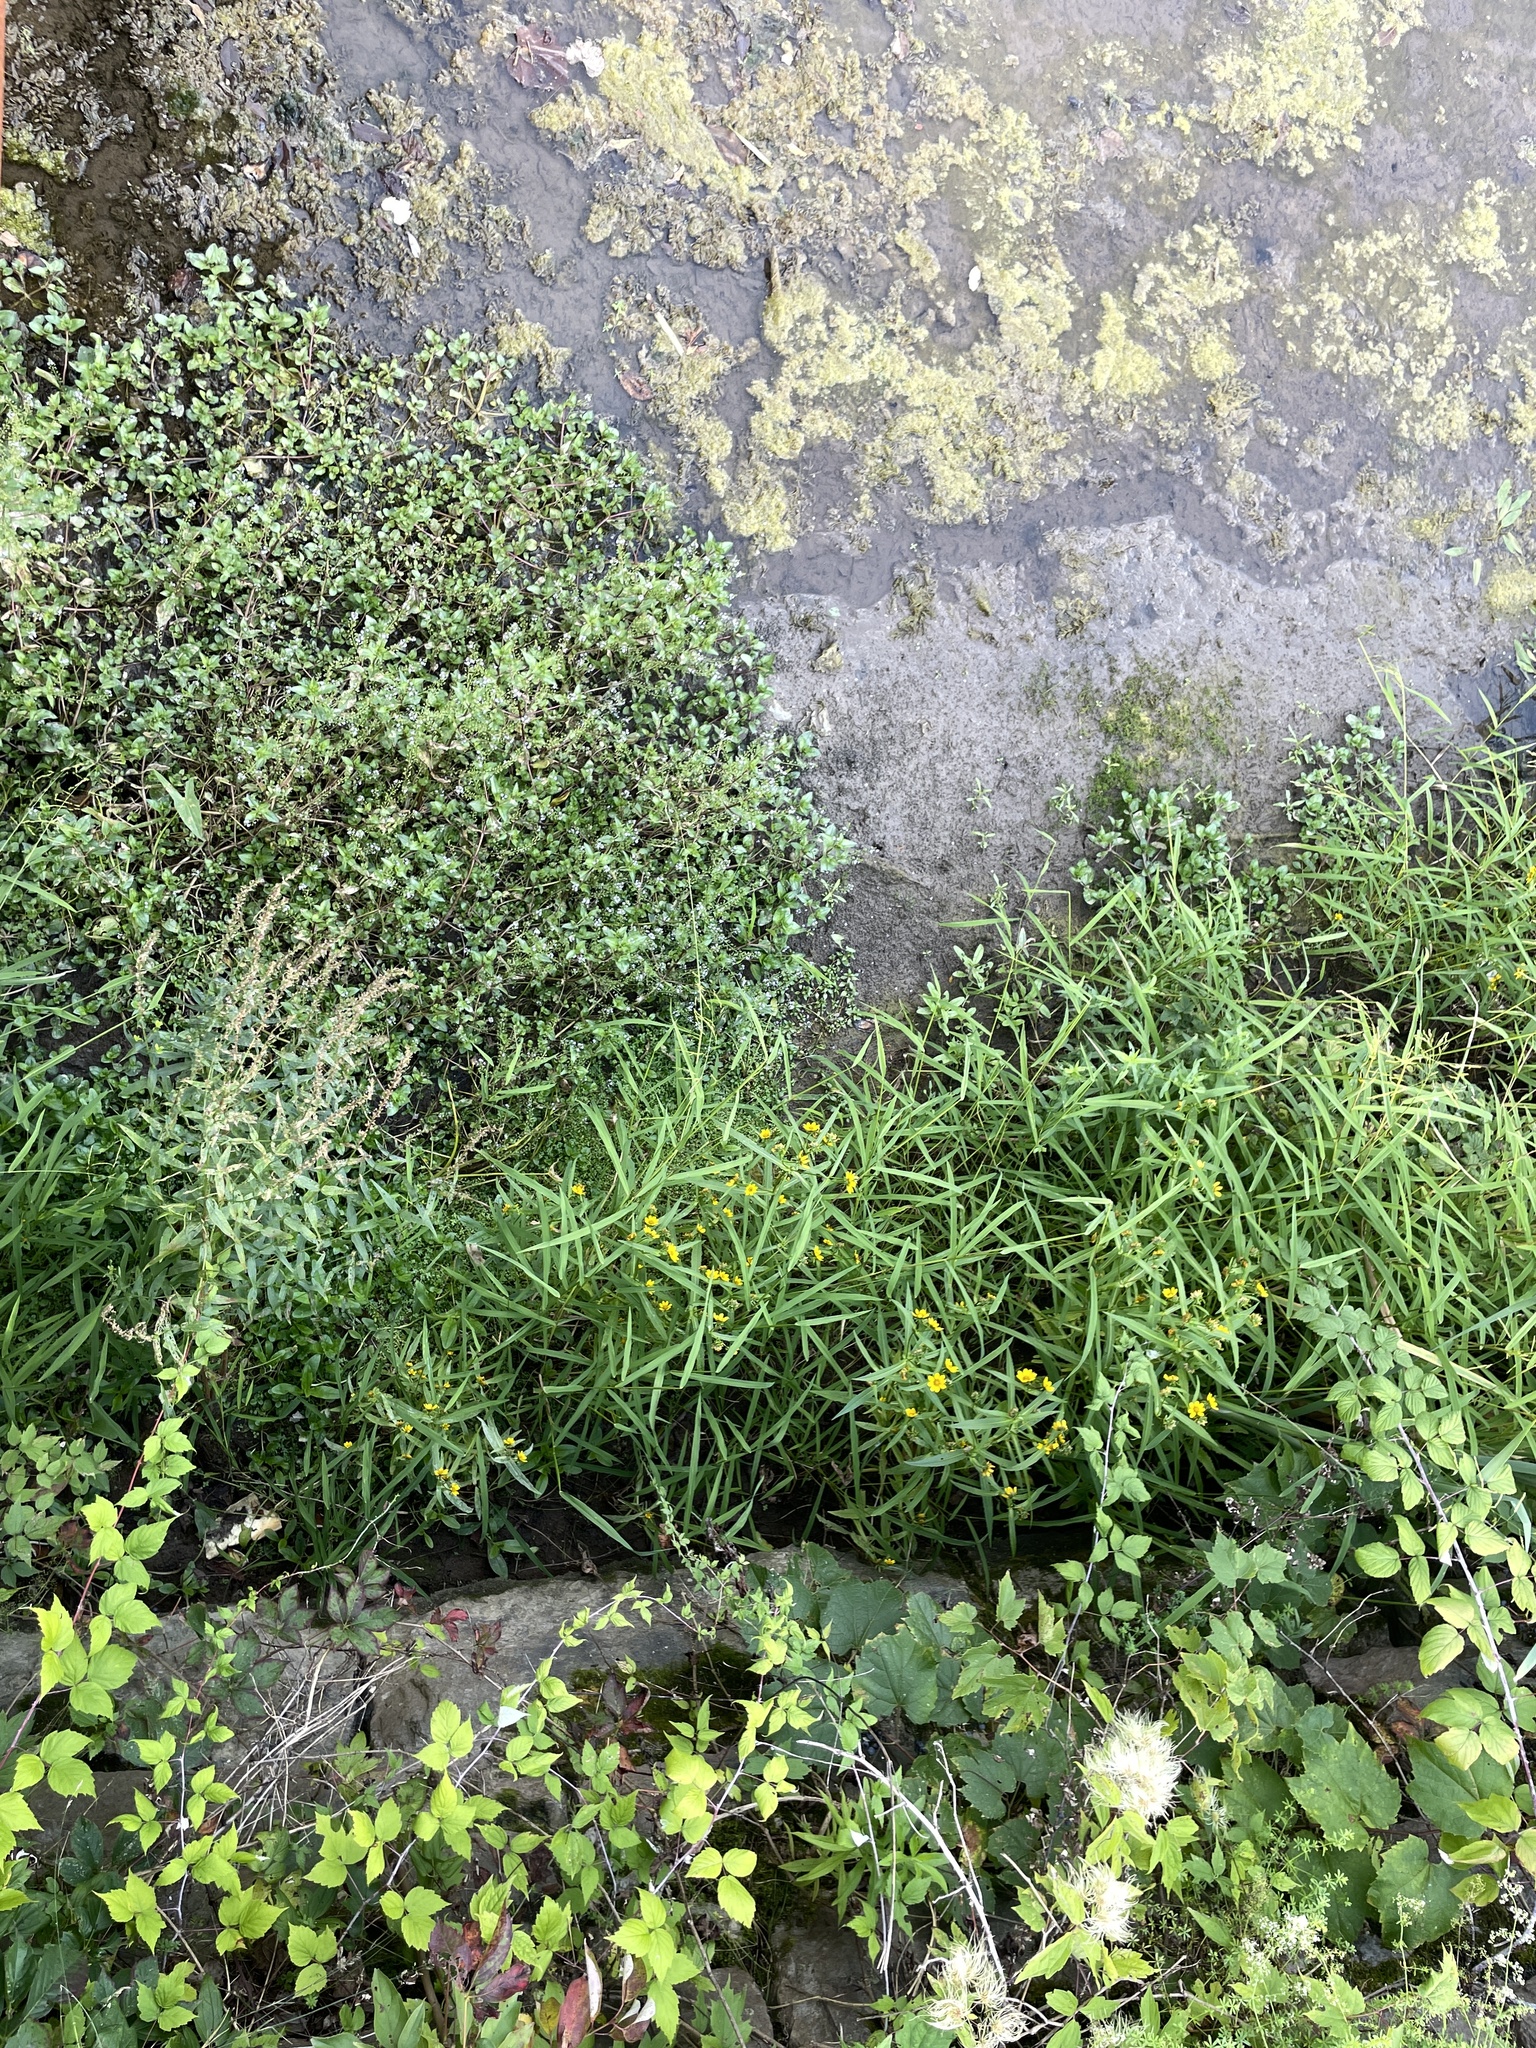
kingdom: Plantae
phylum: Tracheophyta
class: Magnoliopsida
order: Lamiales
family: Plantaginaceae
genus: Veronica
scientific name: Veronica anagallis-aquatica
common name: Water speedwell
